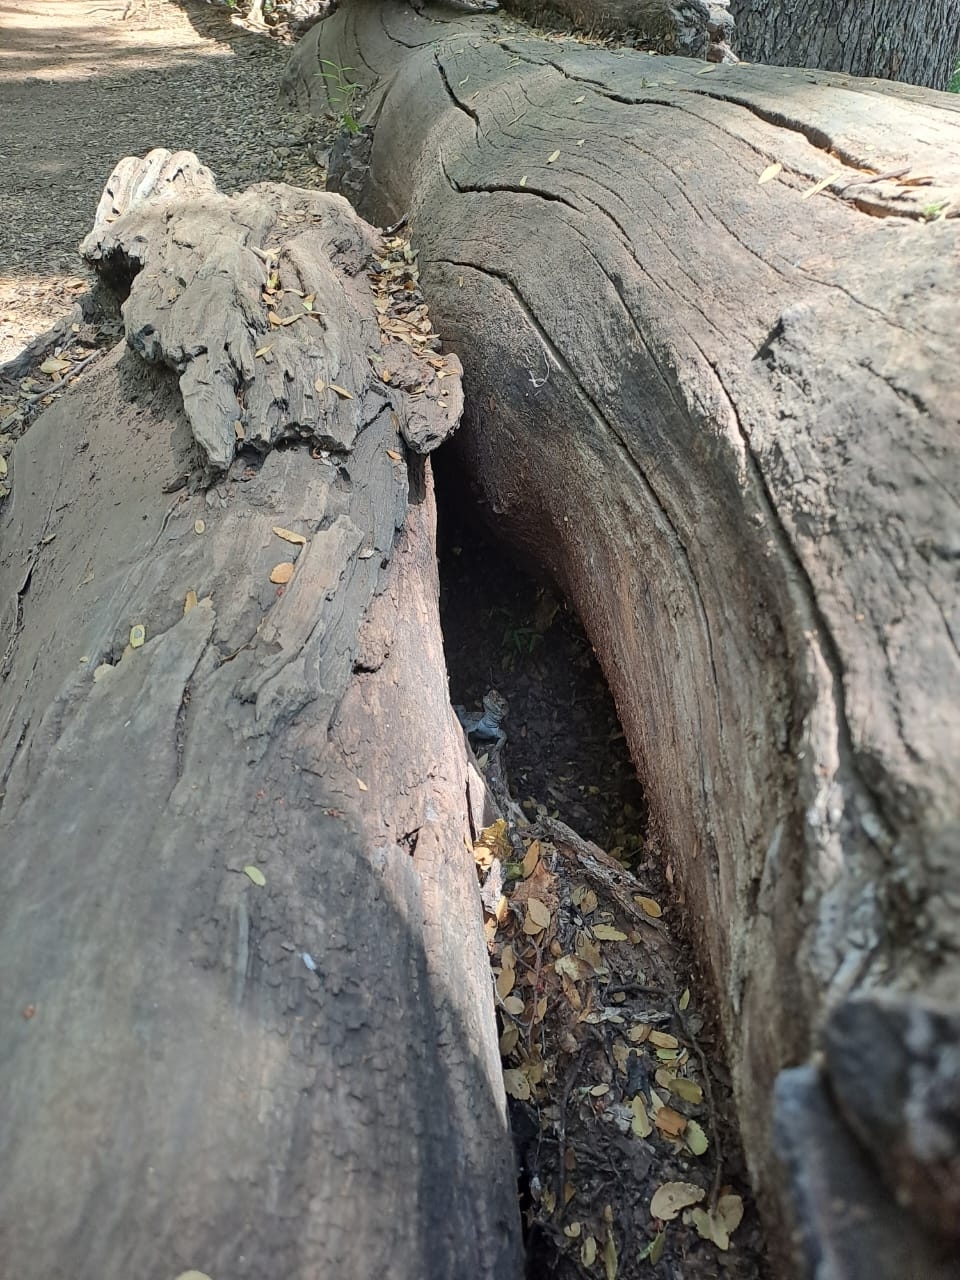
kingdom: Animalia
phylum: Chordata
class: Squamata
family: Leiosauridae
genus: Pristidactylus
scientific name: Pristidactylus torquatus
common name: Southern grumbler
